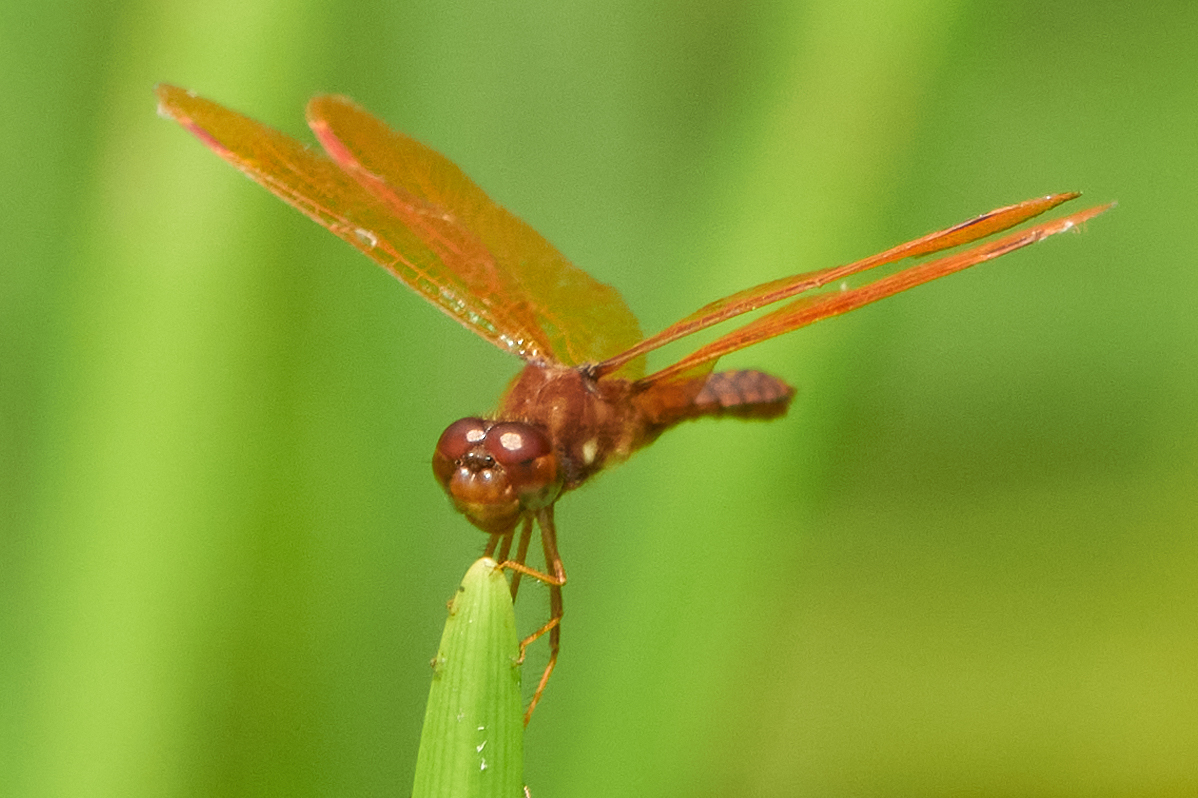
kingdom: Animalia
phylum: Arthropoda
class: Insecta
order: Odonata
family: Libellulidae
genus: Perithemis
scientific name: Perithemis tenera
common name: Eastern amberwing
